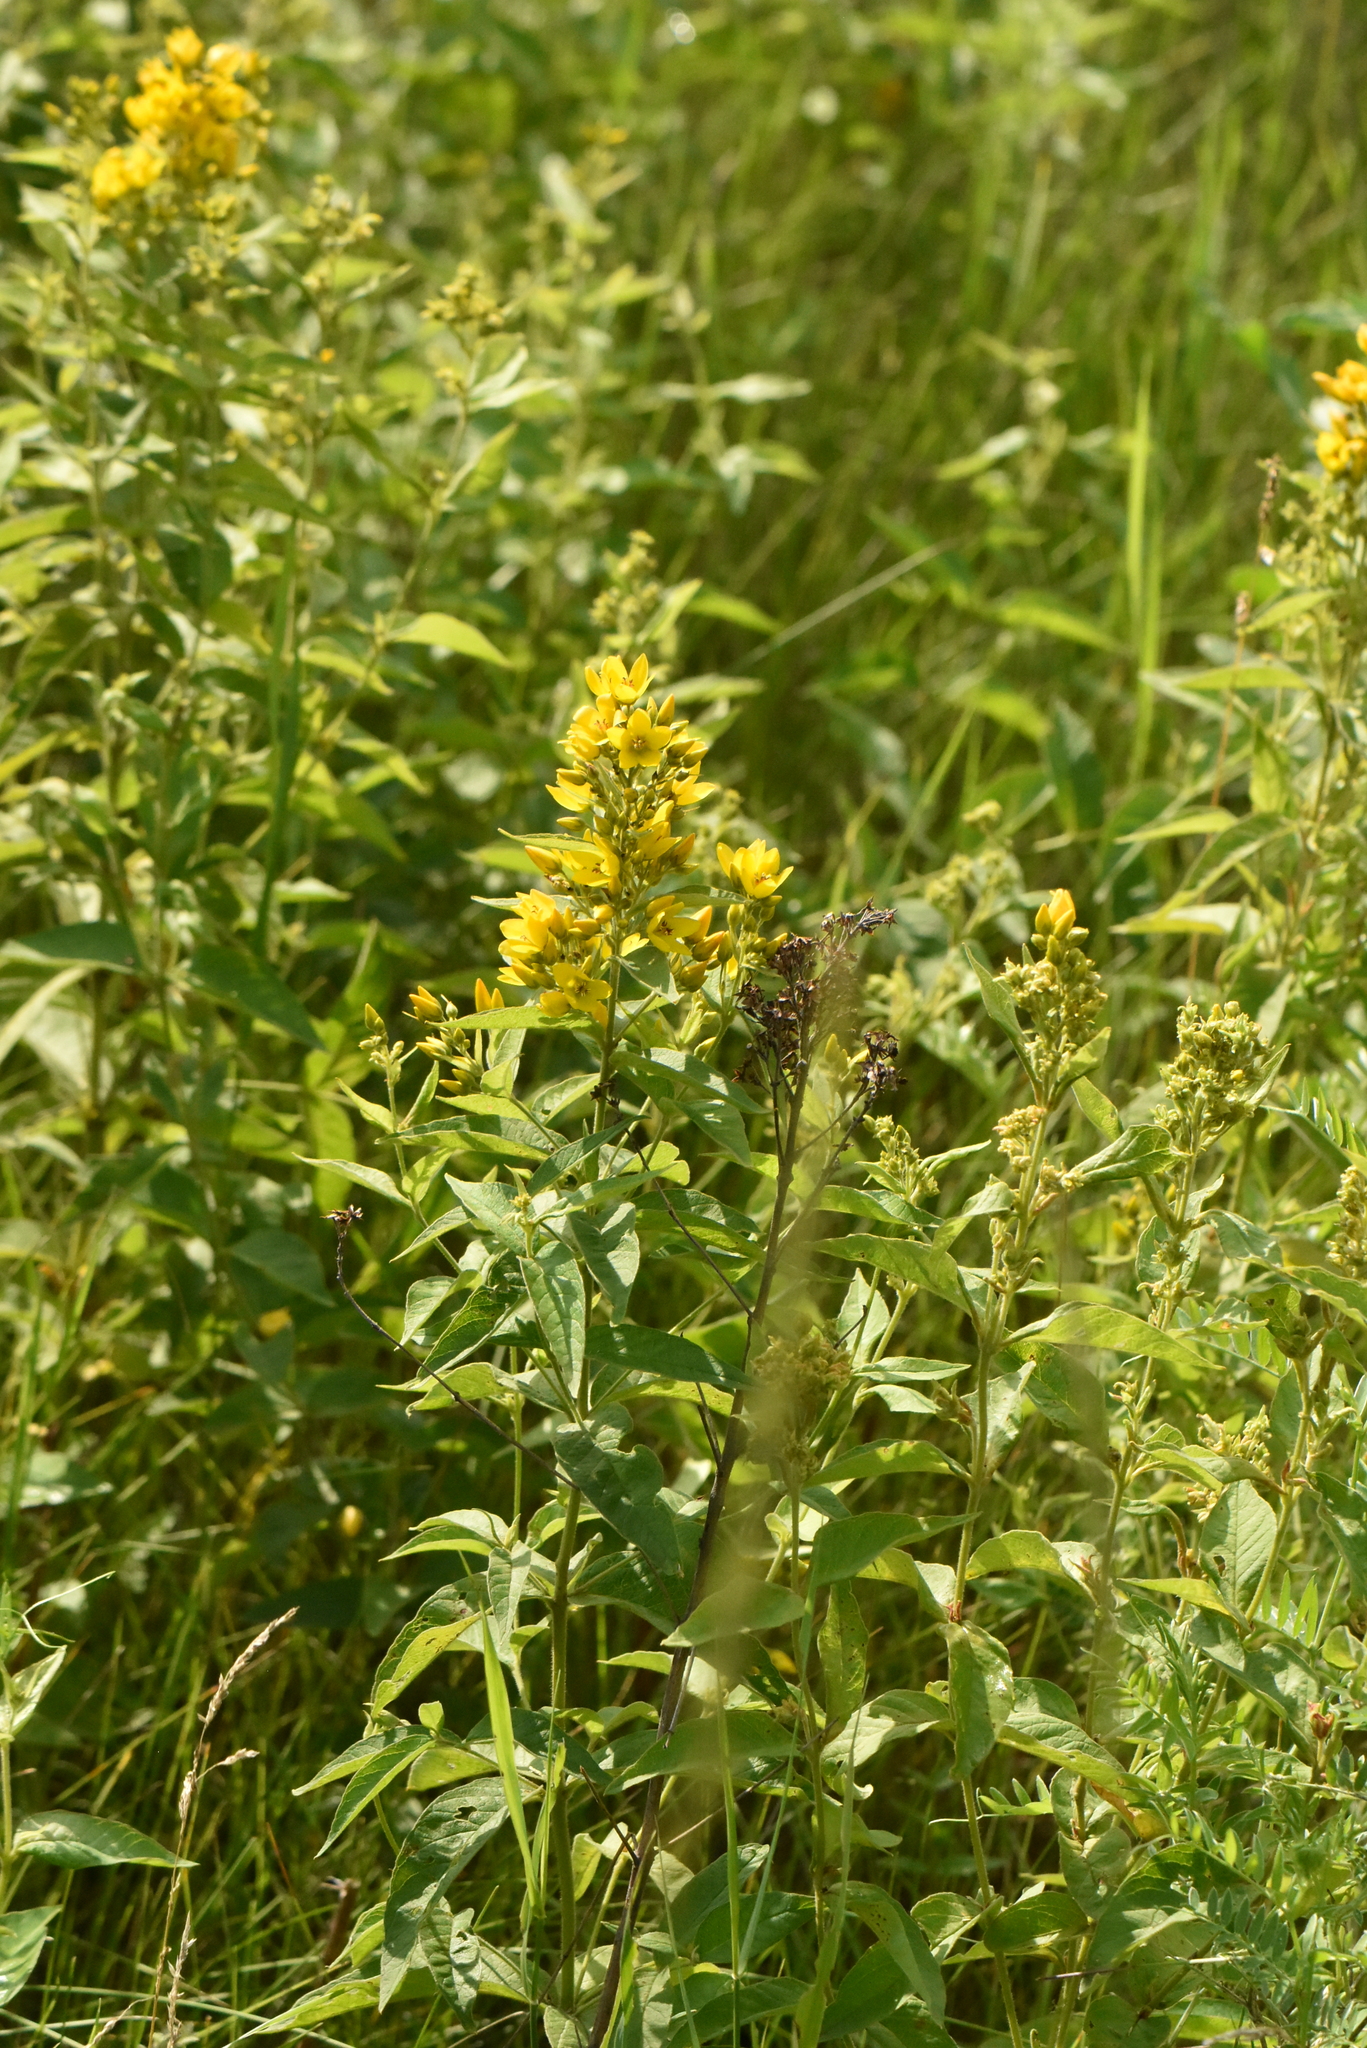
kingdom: Plantae
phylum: Tracheophyta
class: Magnoliopsida
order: Ericales
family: Primulaceae
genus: Lysimachia
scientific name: Lysimachia vulgaris
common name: Yellow loosestrife
